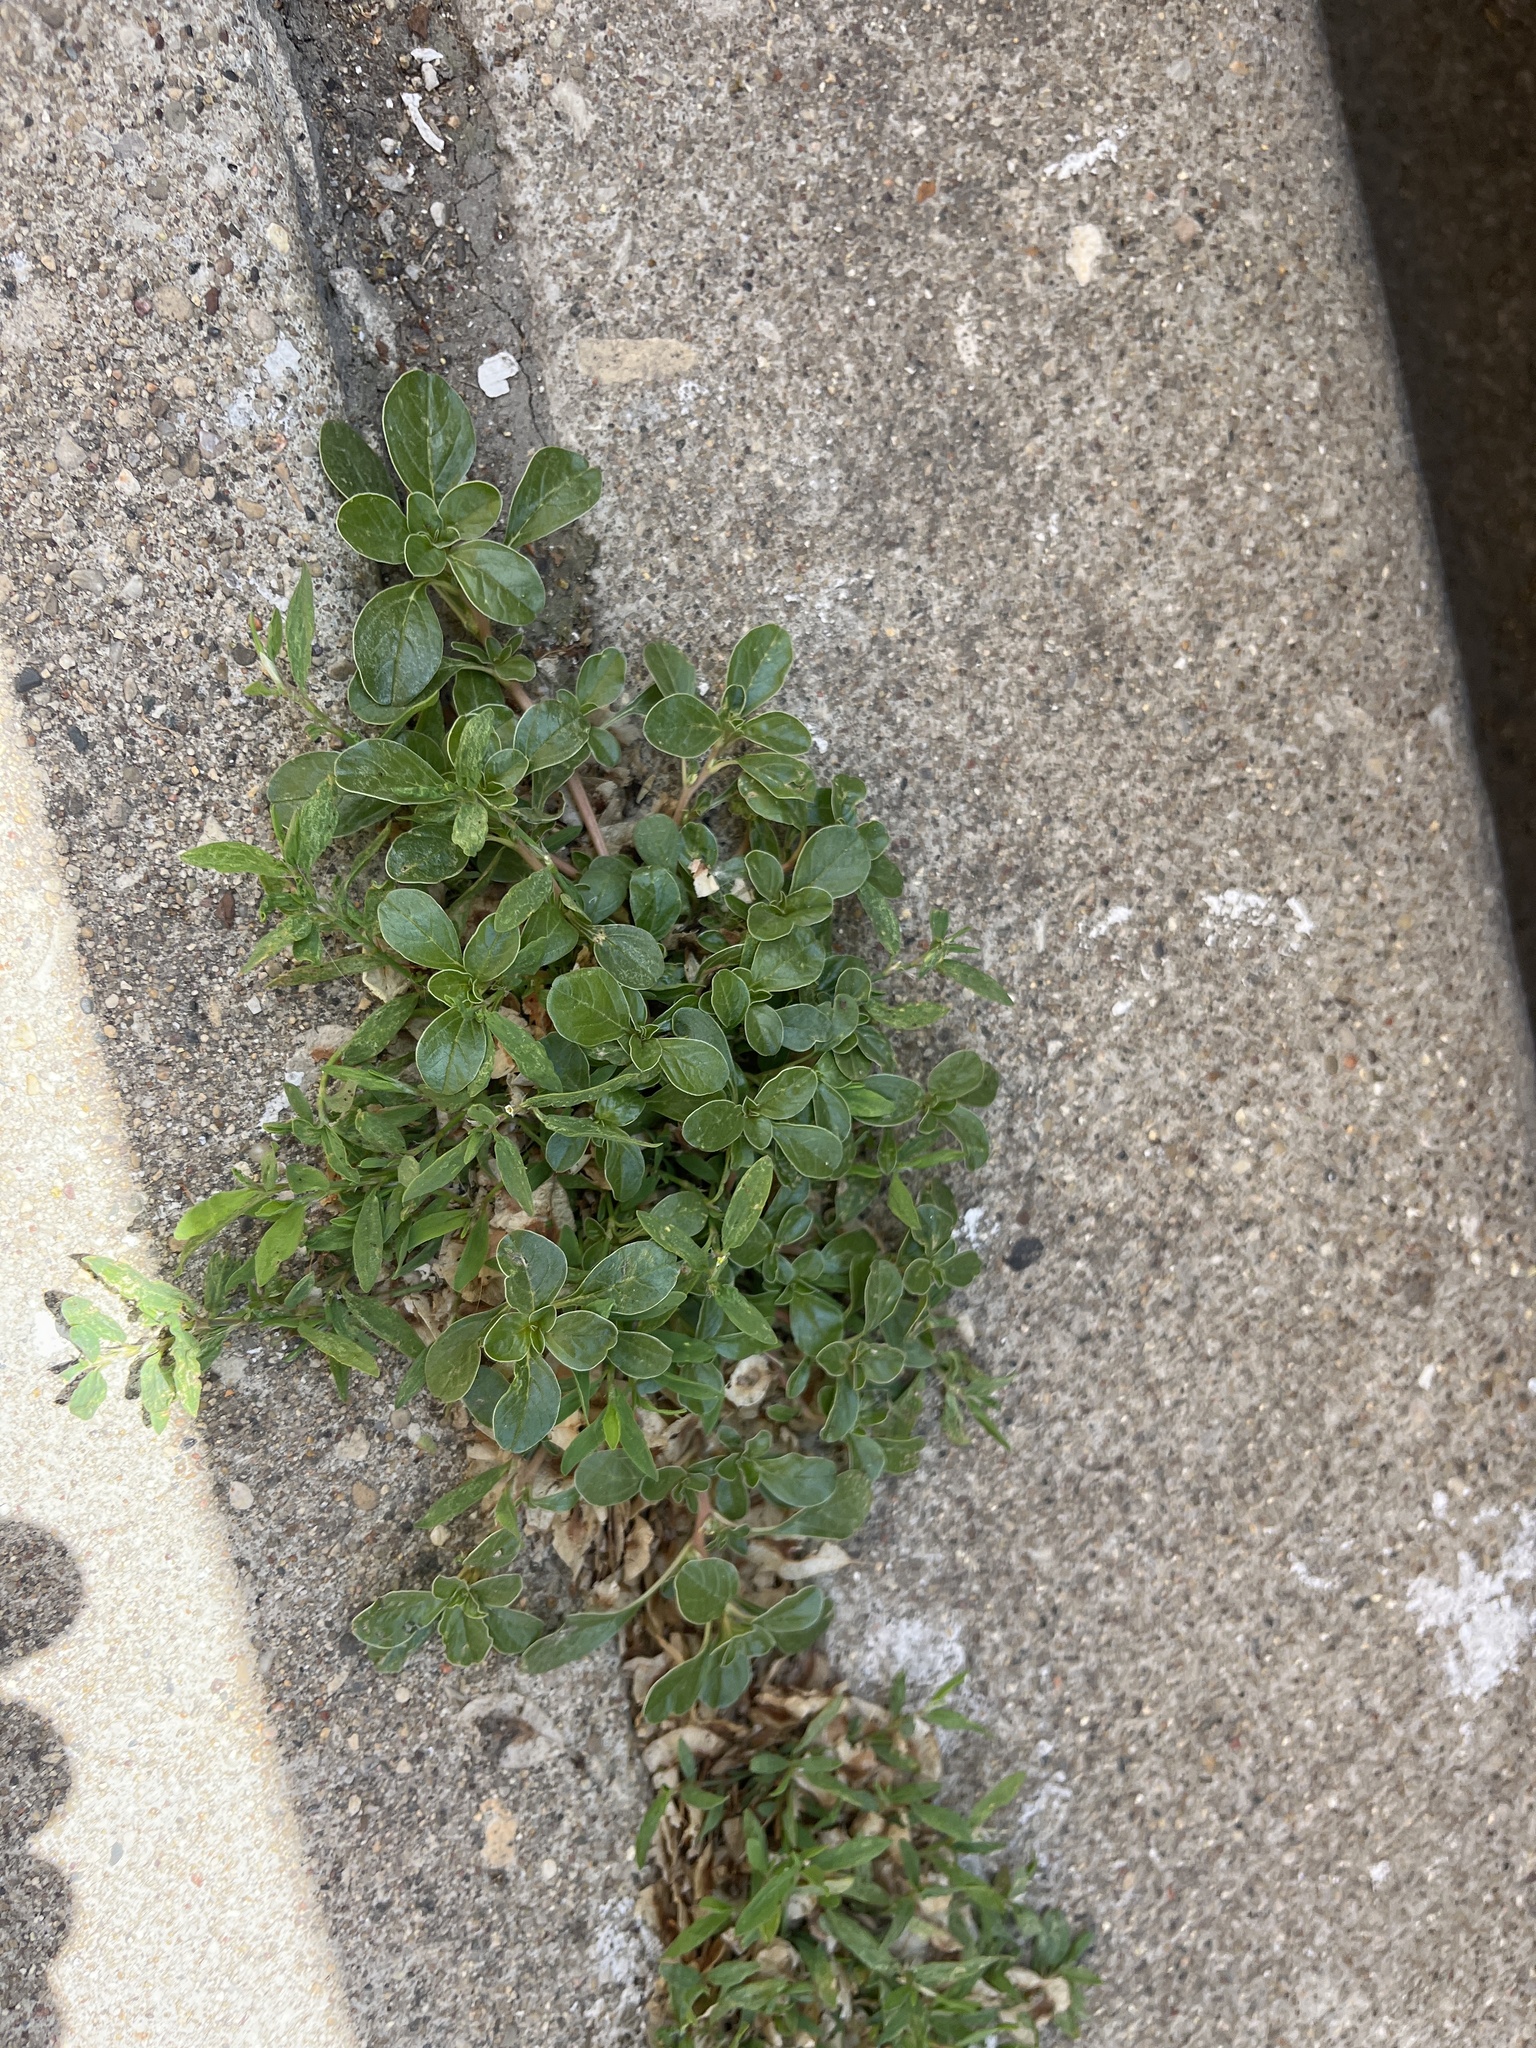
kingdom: Plantae
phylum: Tracheophyta
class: Magnoliopsida
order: Caryophyllales
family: Portulacaceae
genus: Portulaca
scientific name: Portulaca oleracea
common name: Common purslane
